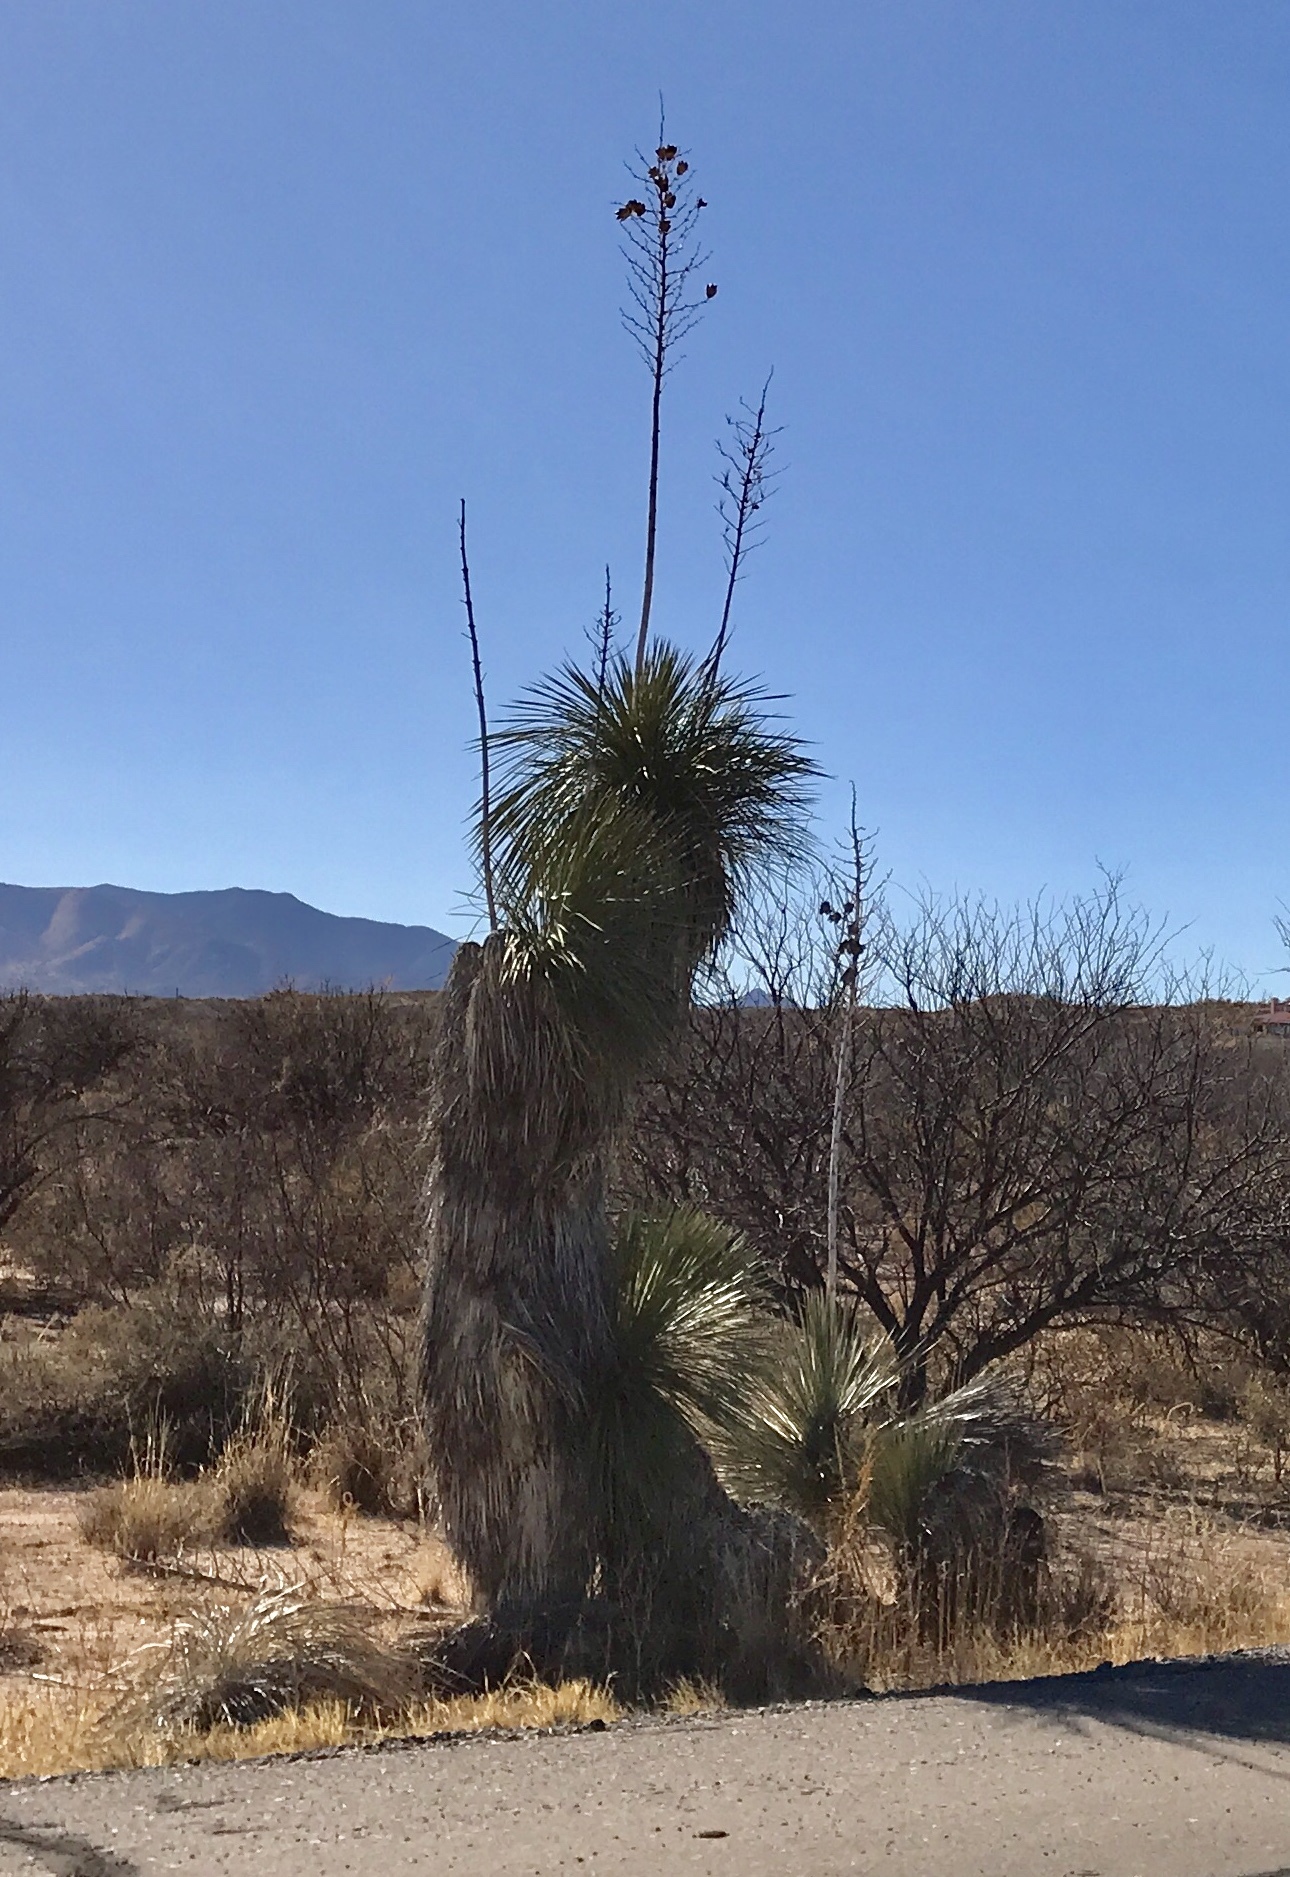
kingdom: Plantae
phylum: Tracheophyta
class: Liliopsida
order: Asparagales
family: Asparagaceae
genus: Yucca
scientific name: Yucca elata
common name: Palmella
